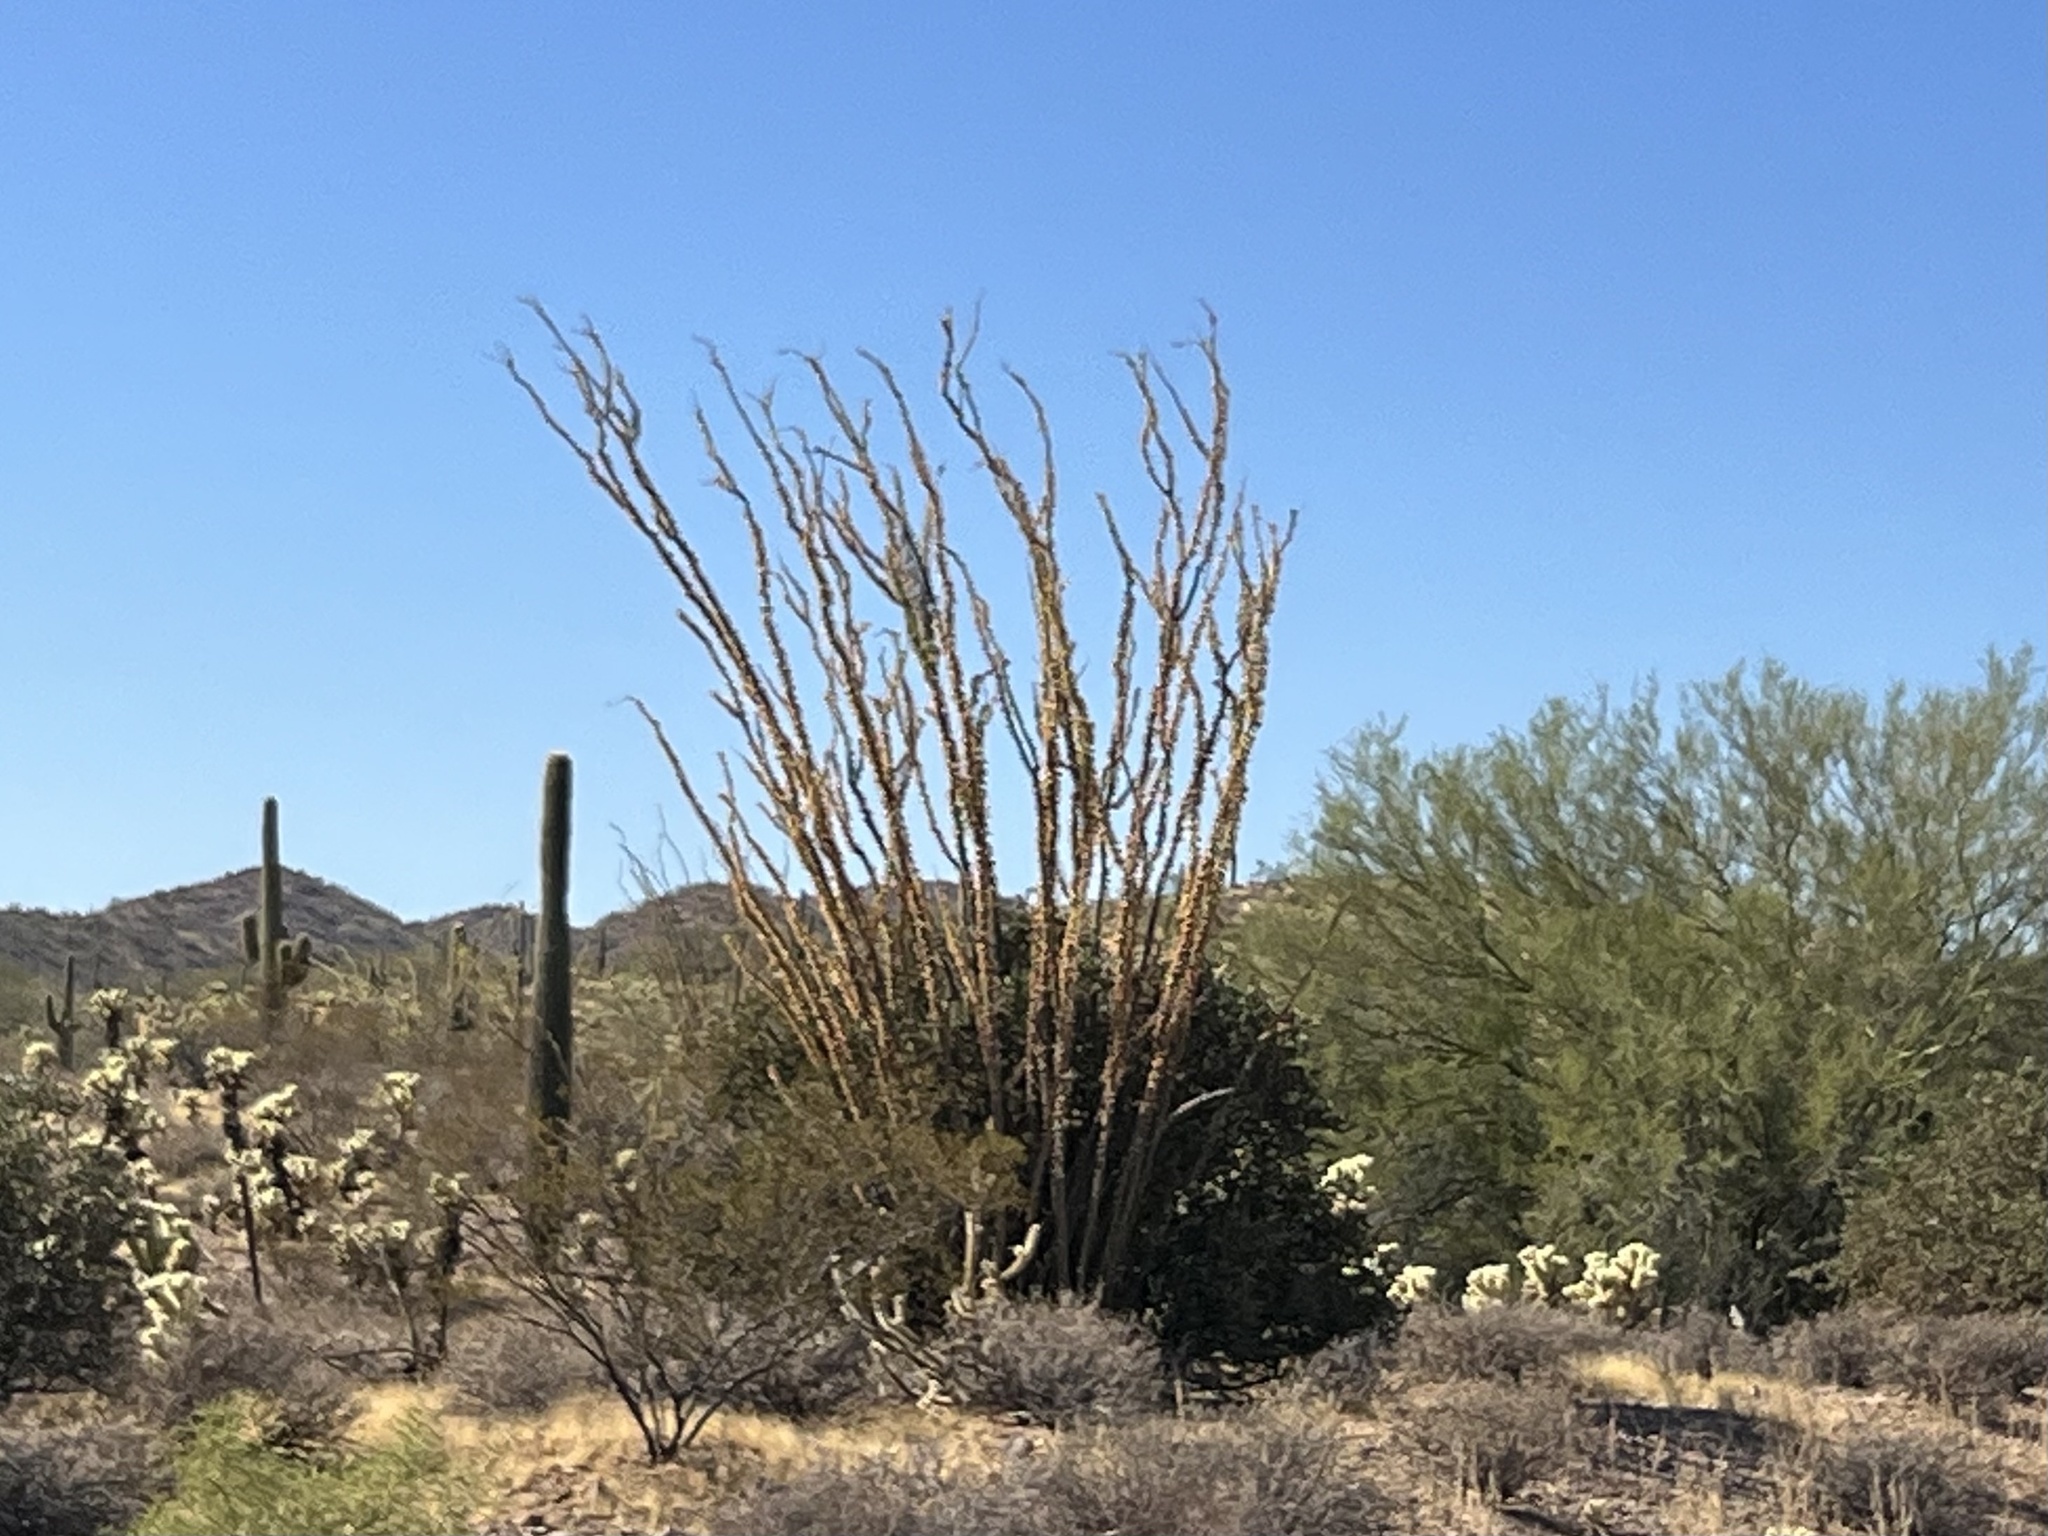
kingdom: Plantae
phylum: Tracheophyta
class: Magnoliopsida
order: Ericales
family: Fouquieriaceae
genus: Fouquieria
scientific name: Fouquieria splendens
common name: Vine-cactus
